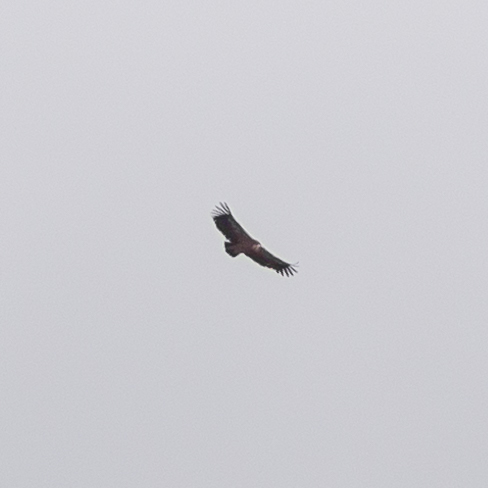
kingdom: Animalia
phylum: Chordata
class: Aves
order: Accipitriformes
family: Accipitridae
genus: Gyps
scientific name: Gyps fulvus
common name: Griffon vulture
